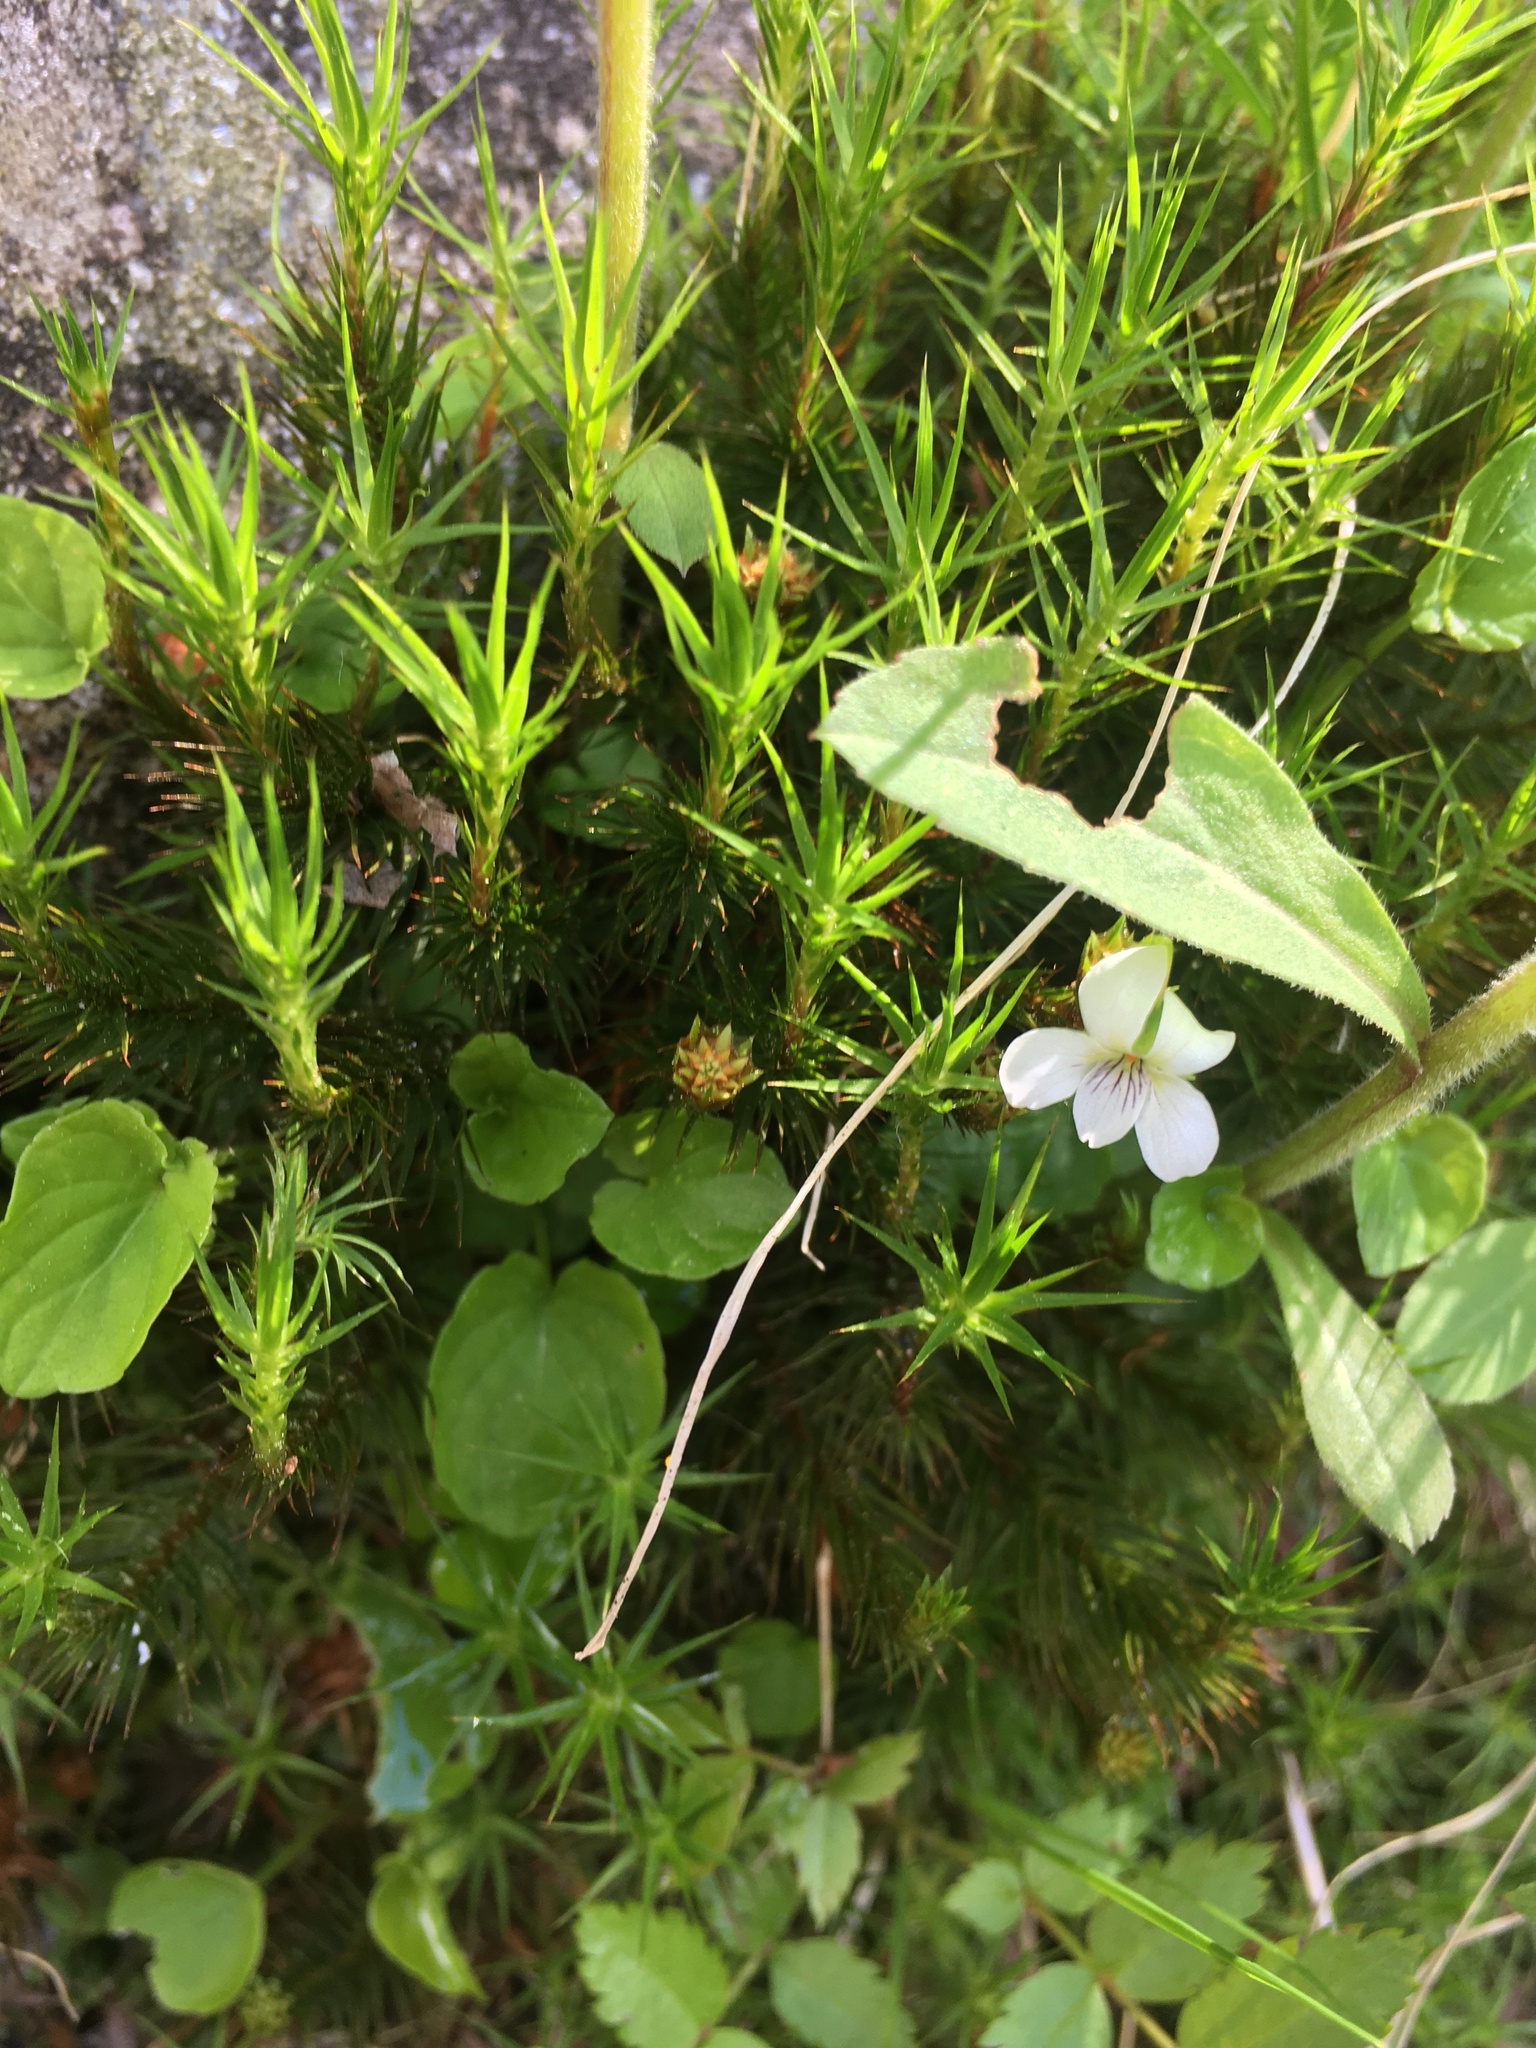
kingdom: Plantae
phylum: Tracheophyta
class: Magnoliopsida
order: Malpighiales
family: Violaceae
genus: Viola
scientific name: Viola minuscula
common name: Northern white violet
